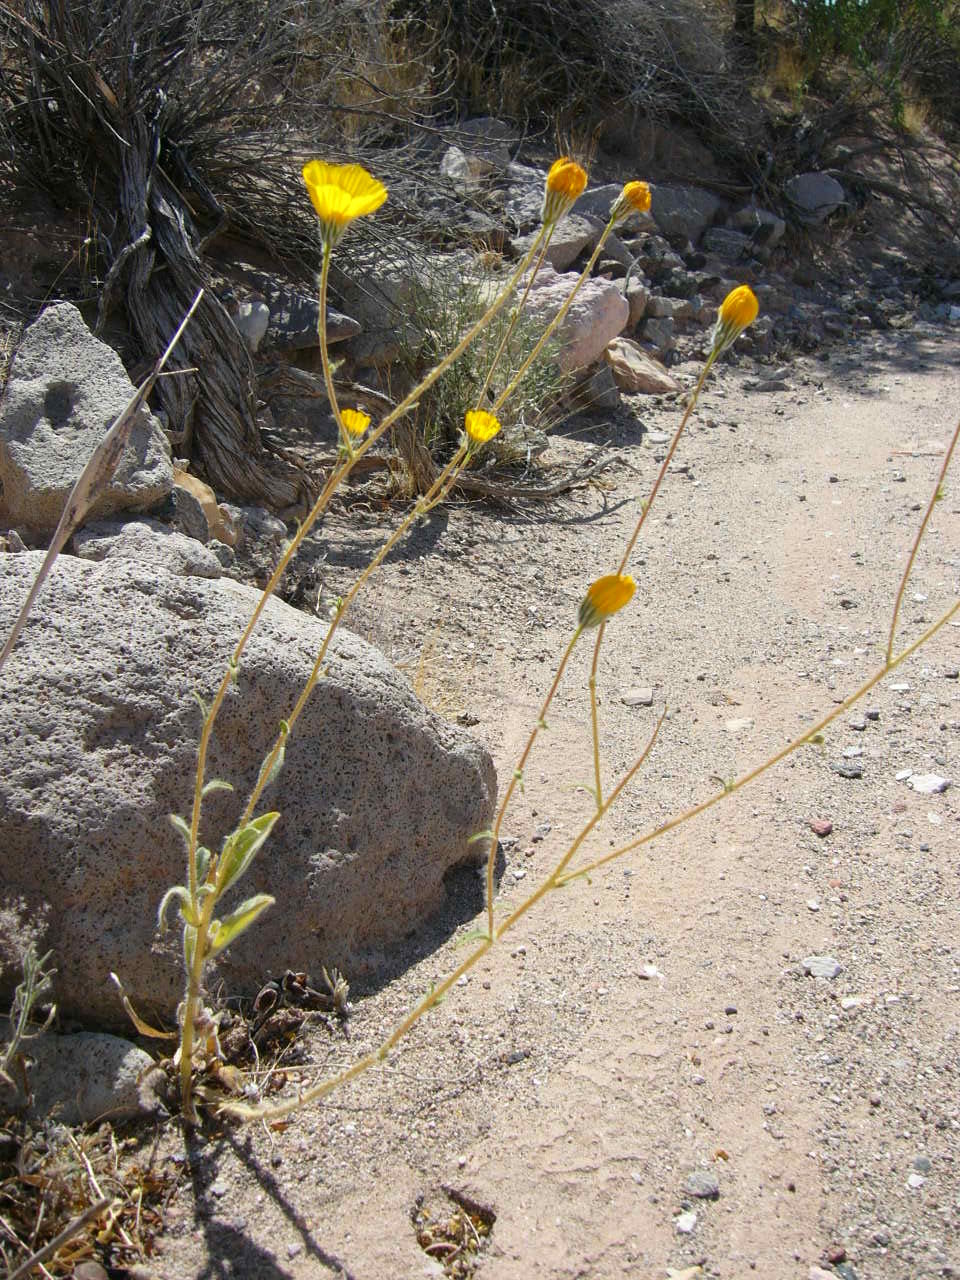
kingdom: Plantae
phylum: Tracheophyta
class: Magnoliopsida
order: Asterales
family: Asteraceae
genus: Geraea
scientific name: Geraea canescens
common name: Desert-gold
